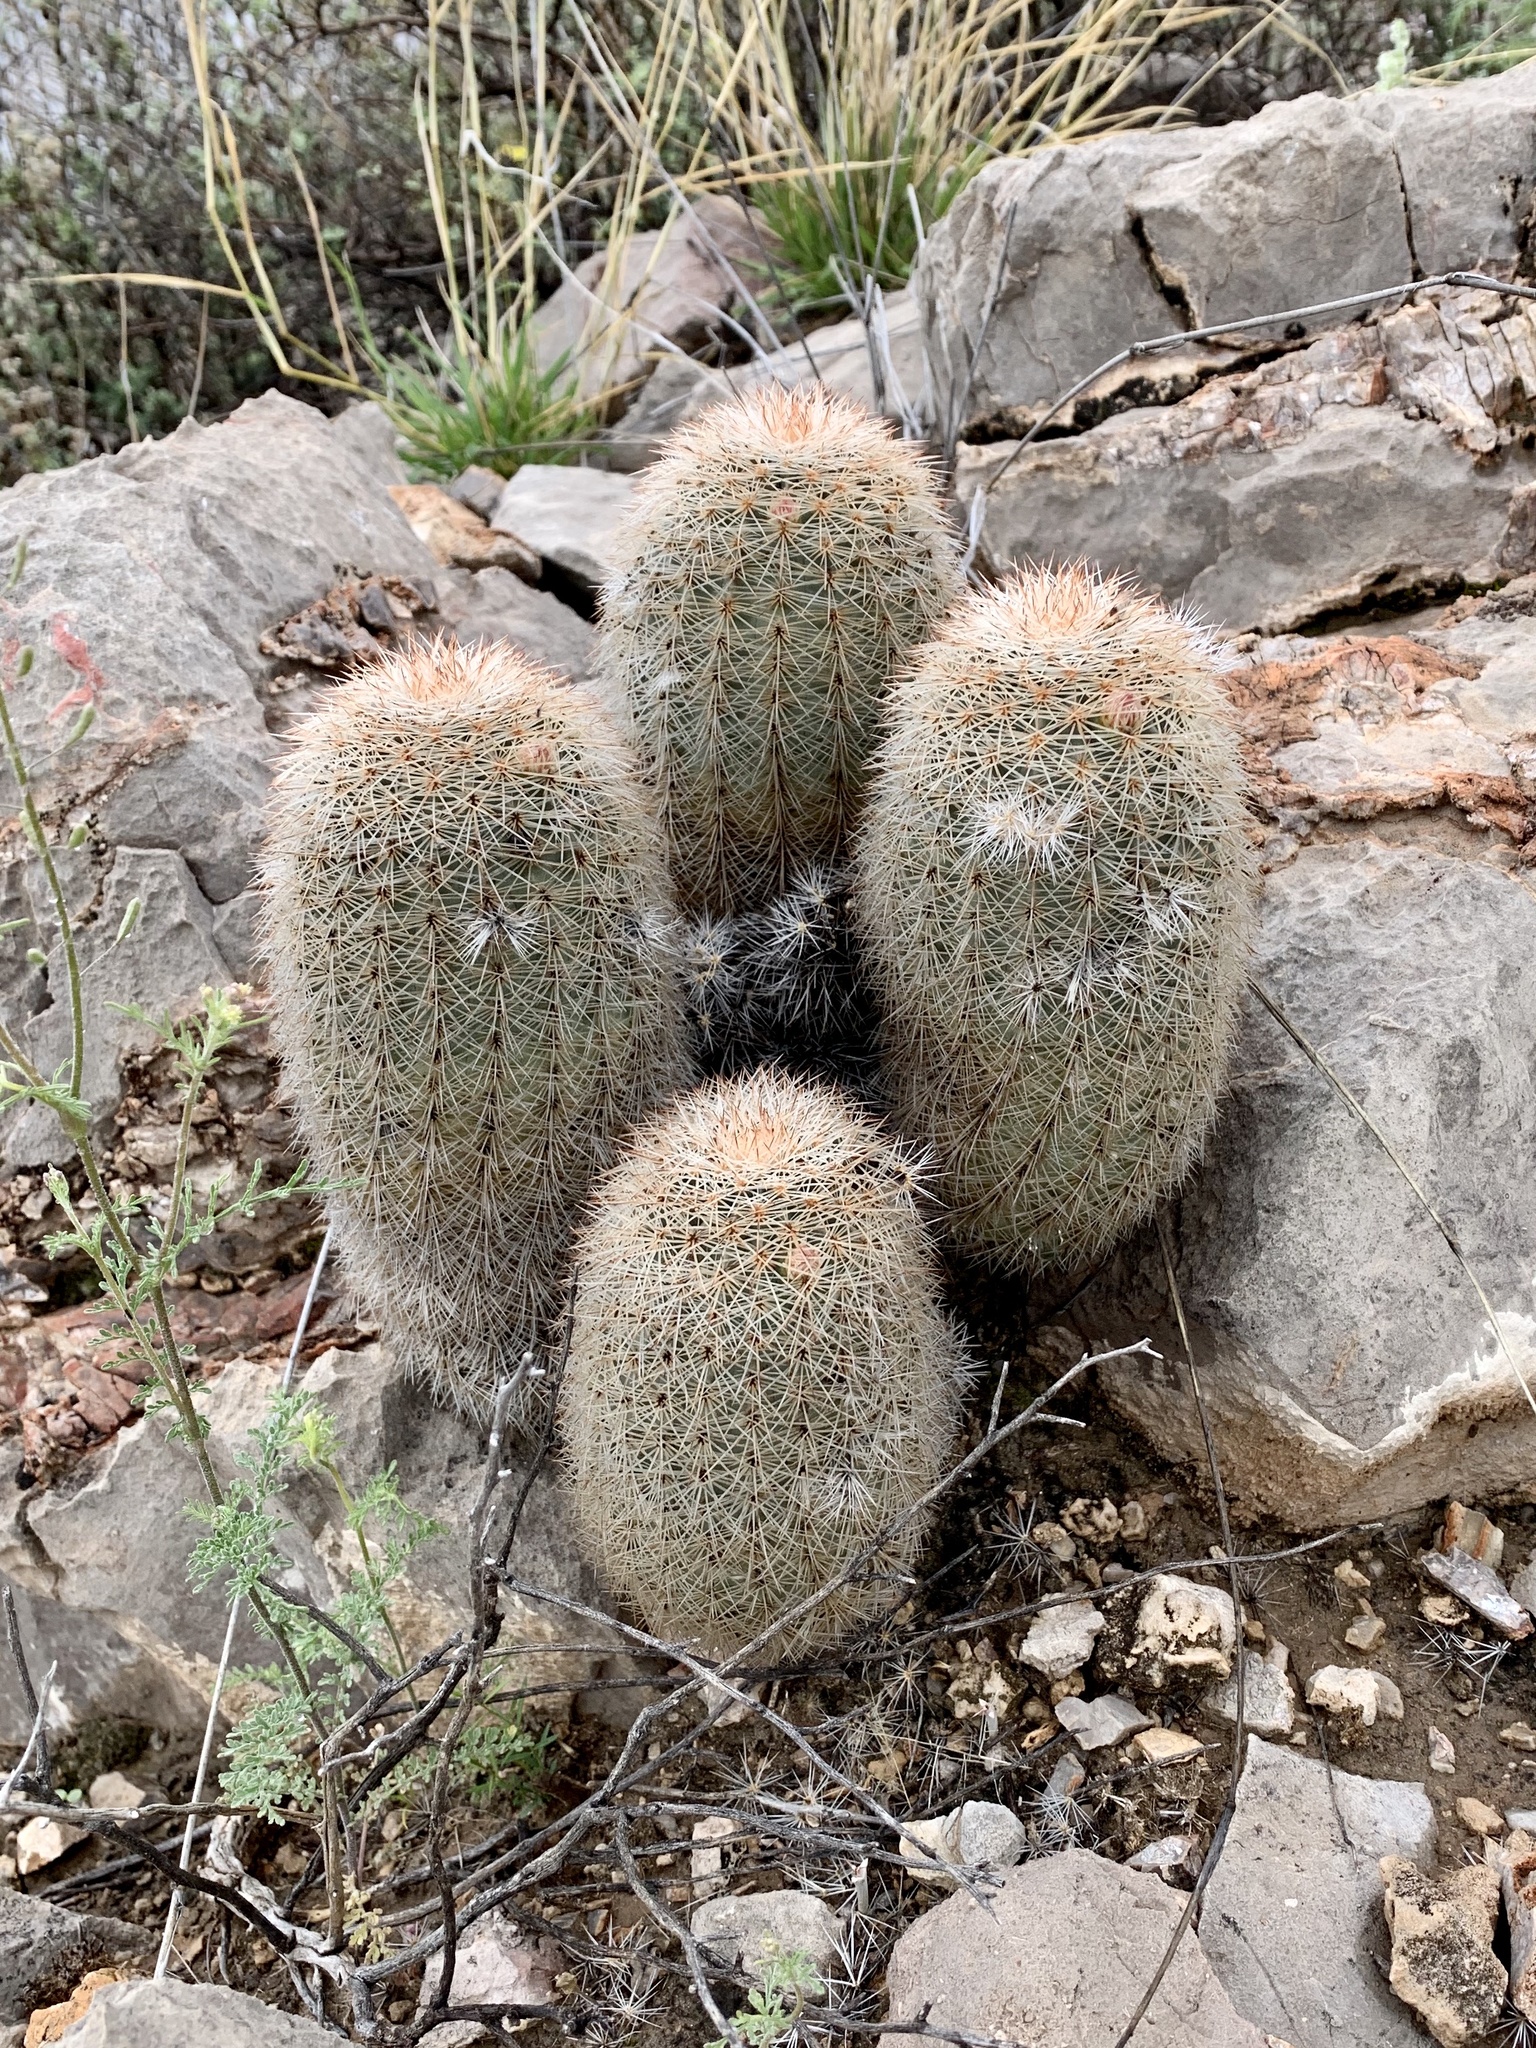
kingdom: Plantae
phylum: Tracheophyta
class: Magnoliopsida
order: Caryophyllales
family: Cactaceae
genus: Echinocereus
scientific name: Echinocereus dasyacanthus
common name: Spiny hedgehog cactus
